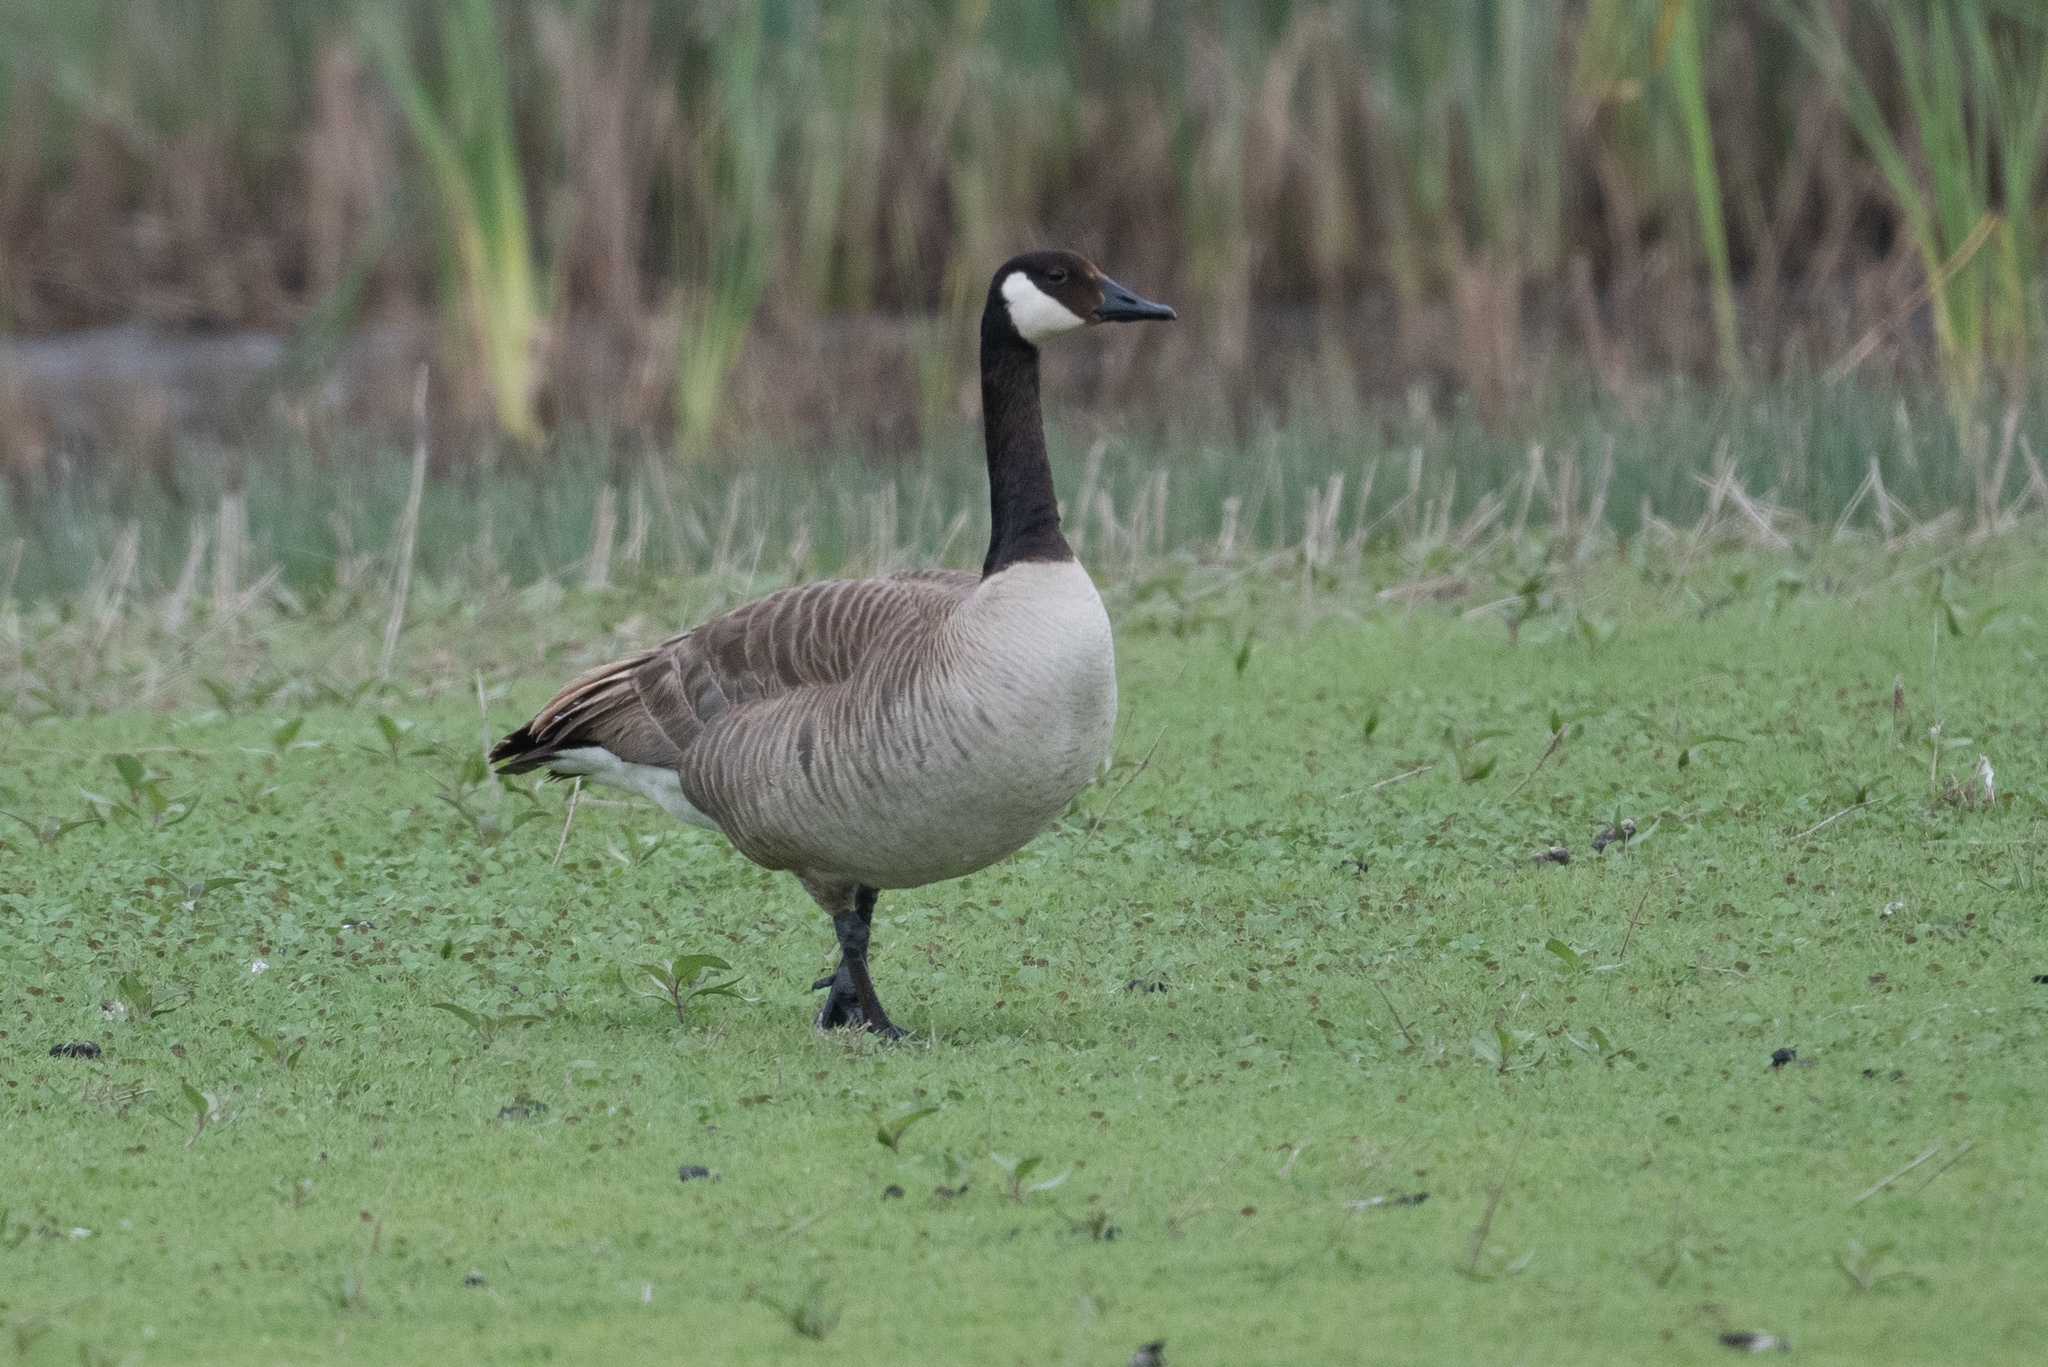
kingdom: Animalia
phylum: Chordata
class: Aves
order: Anseriformes
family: Anatidae
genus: Branta
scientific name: Branta canadensis
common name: Canada goose
